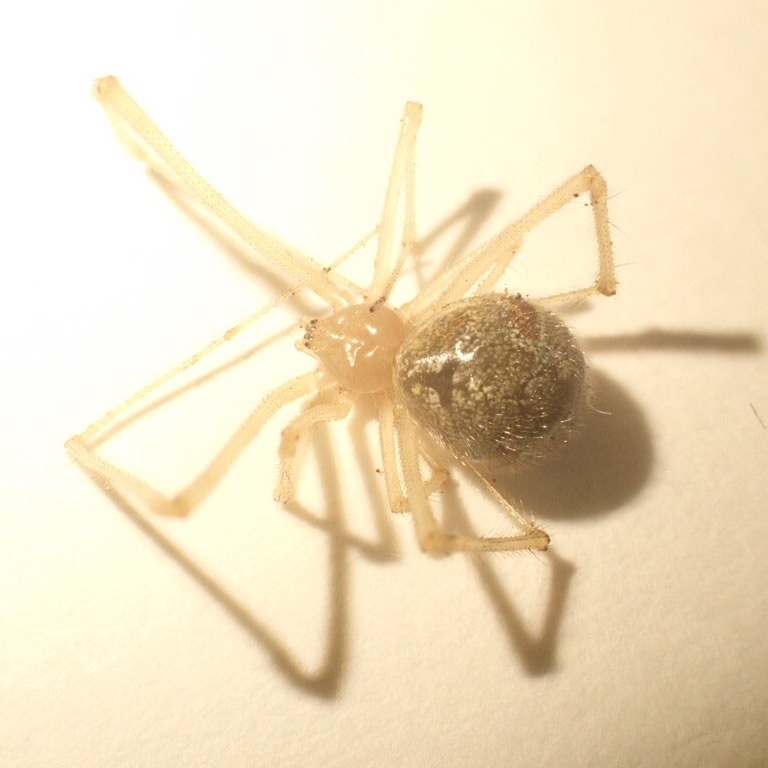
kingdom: Animalia
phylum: Arthropoda
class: Arachnida
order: Araneae
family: Theridiidae
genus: Cryptachaea
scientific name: Cryptachaea gigantipes
